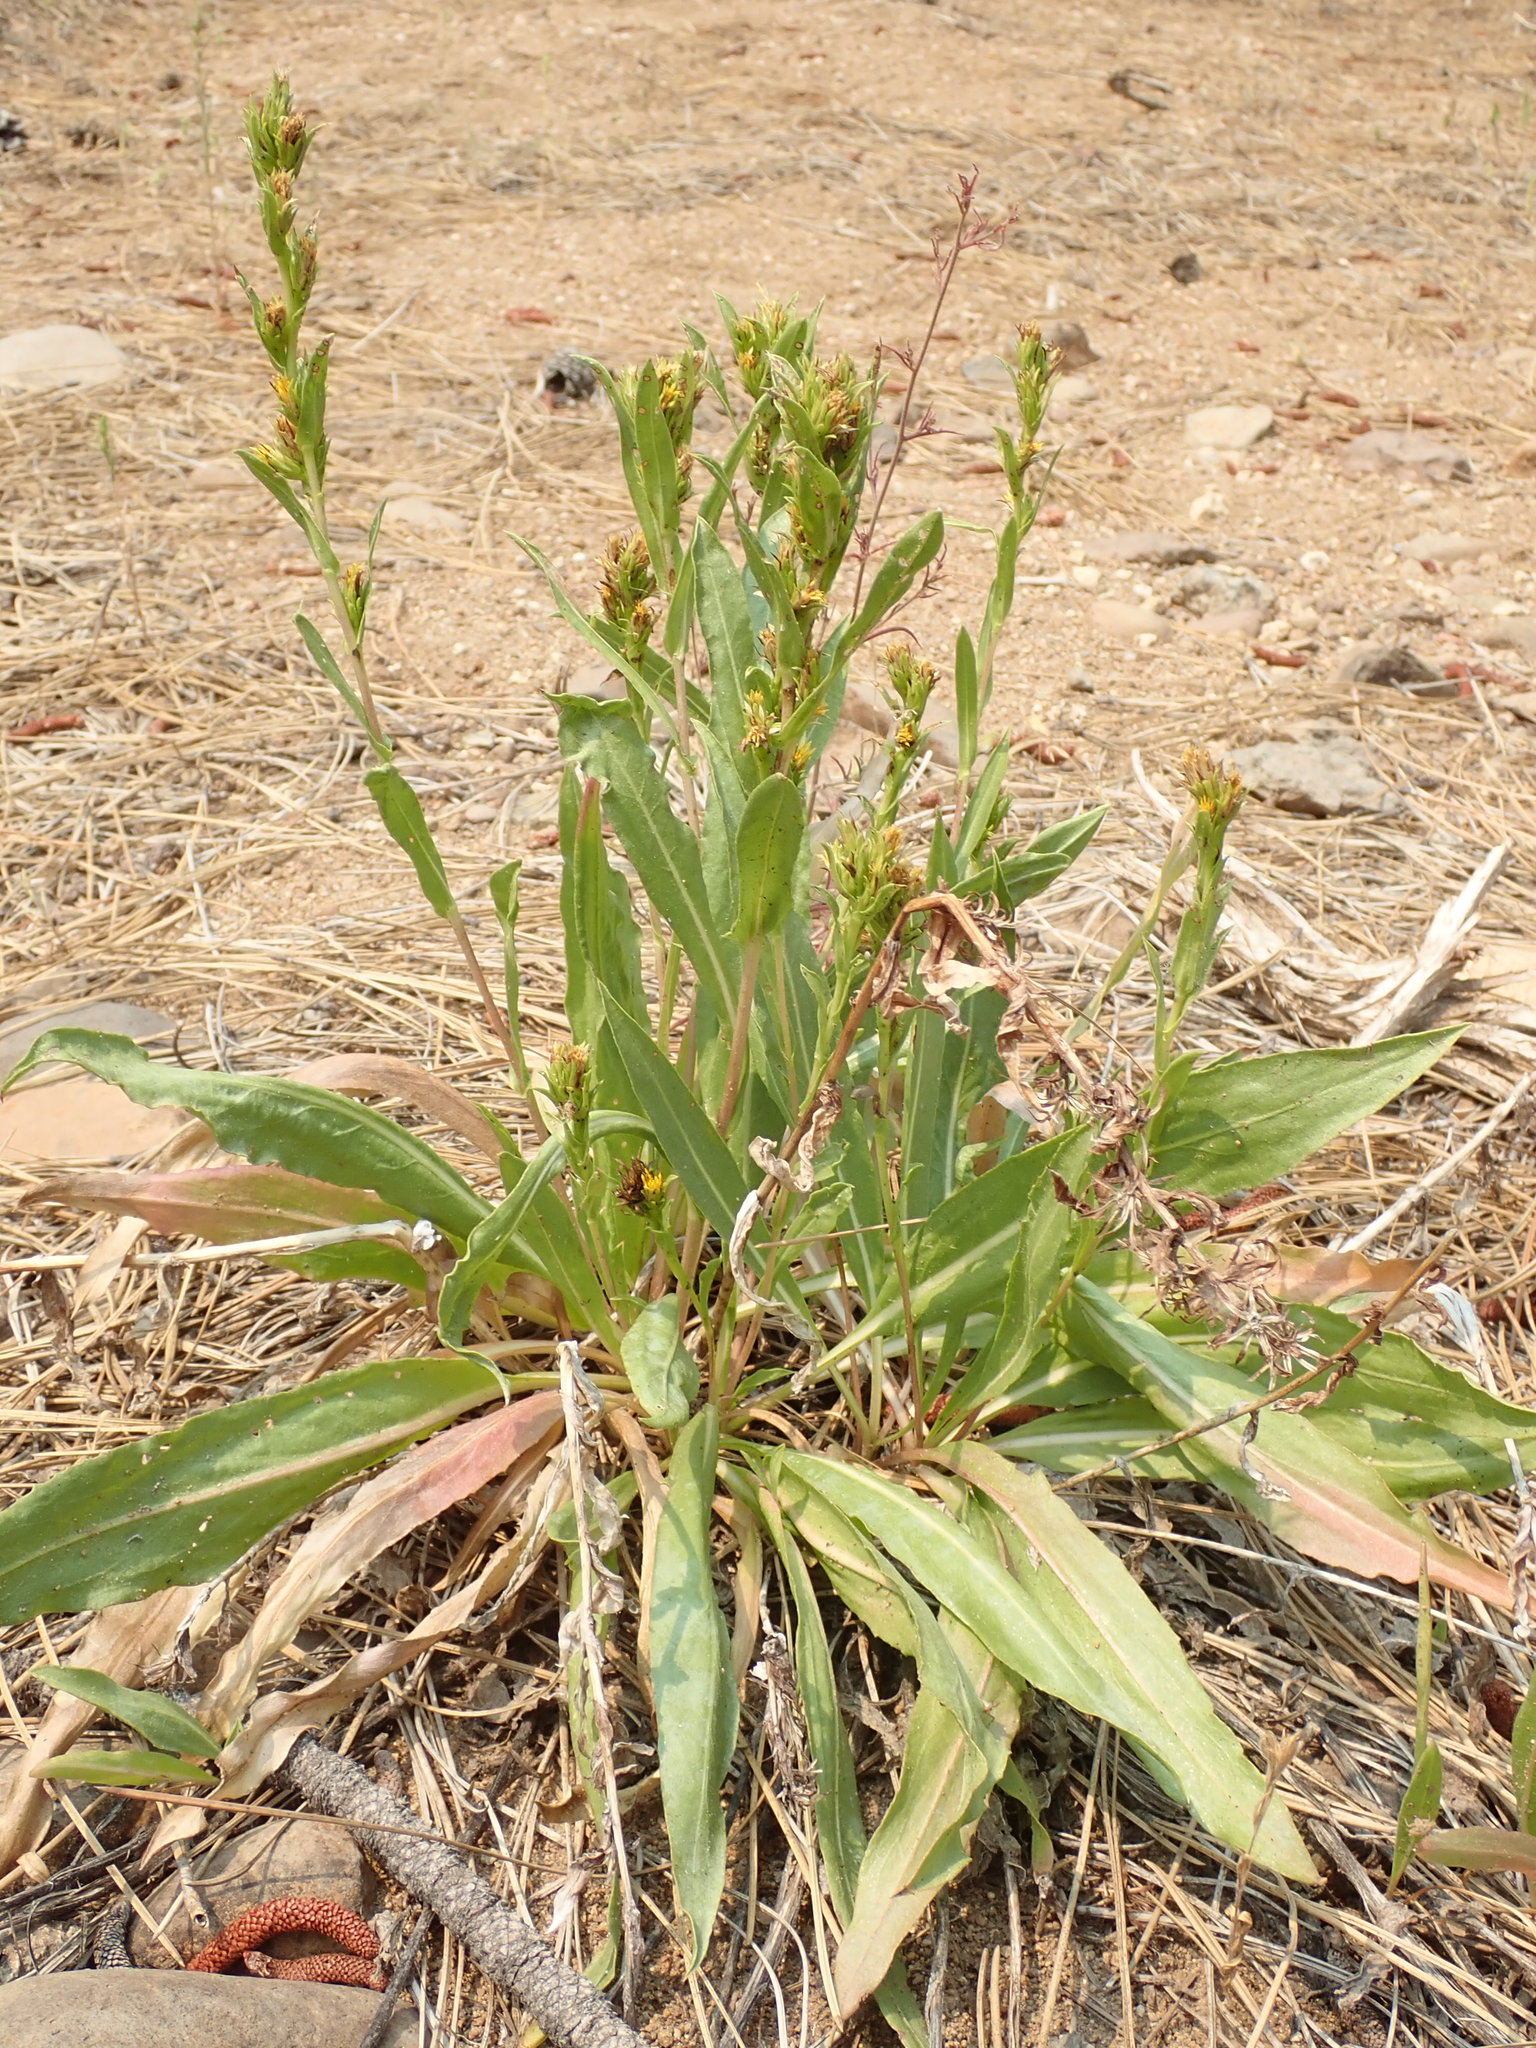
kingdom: Plantae
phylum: Tracheophyta
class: Magnoliopsida
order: Asterales
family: Asteraceae
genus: Pyrrocoma
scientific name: Pyrrocoma lucida
